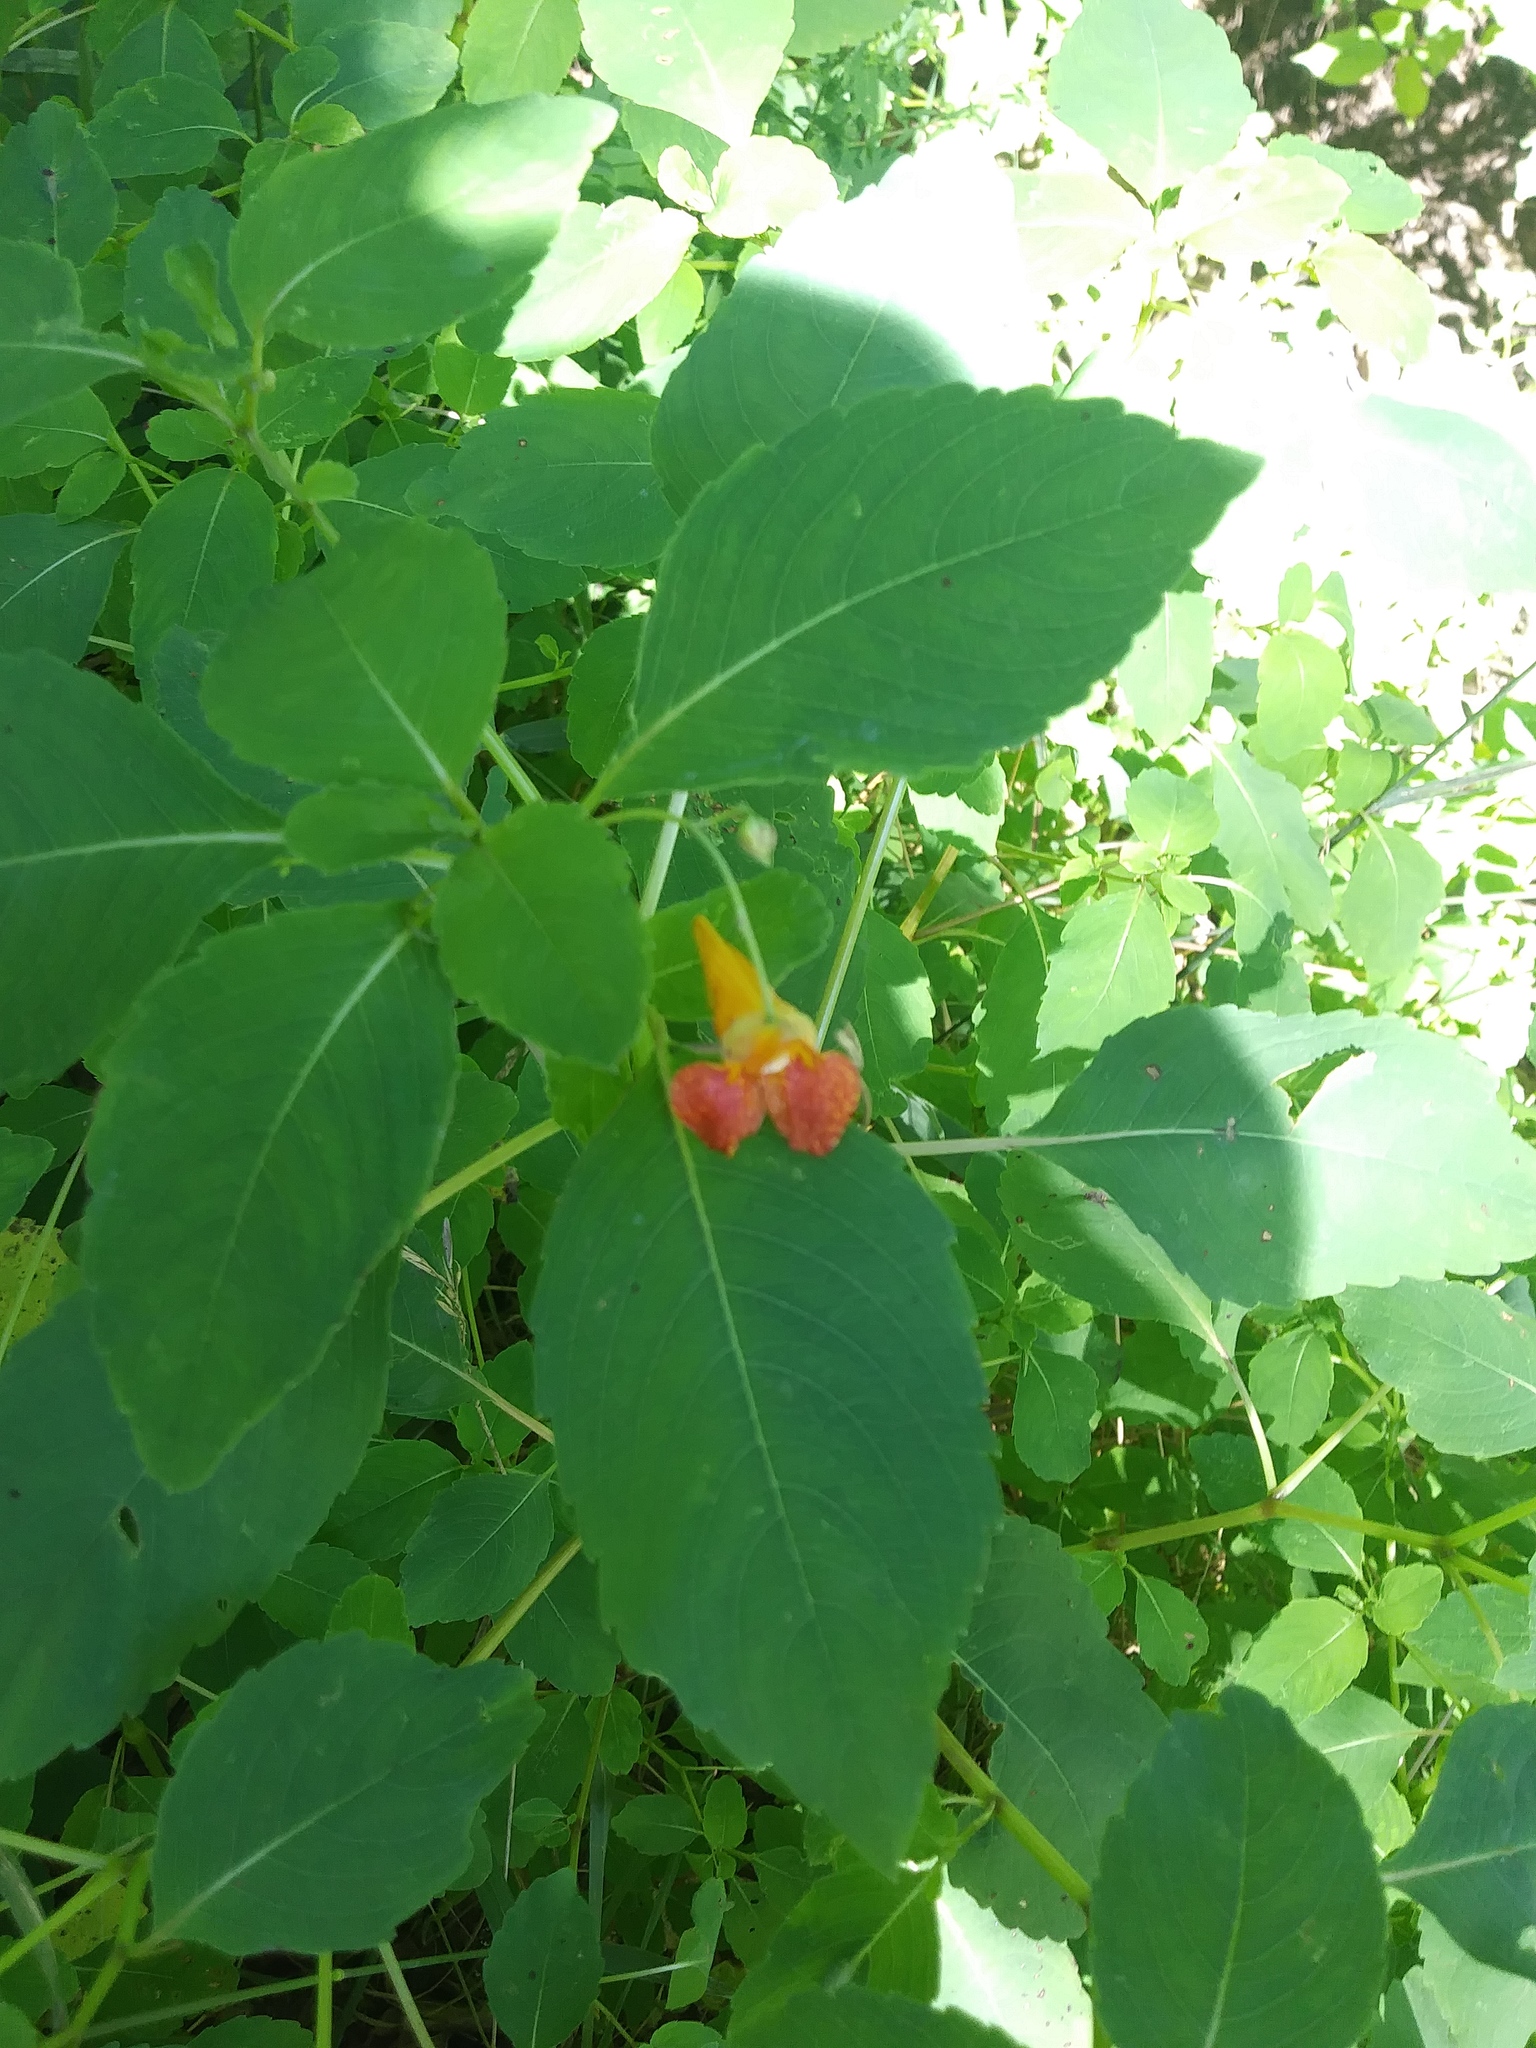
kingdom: Plantae
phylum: Tracheophyta
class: Magnoliopsida
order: Ericales
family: Balsaminaceae
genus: Impatiens
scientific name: Impatiens capensis
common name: Orange balsam
